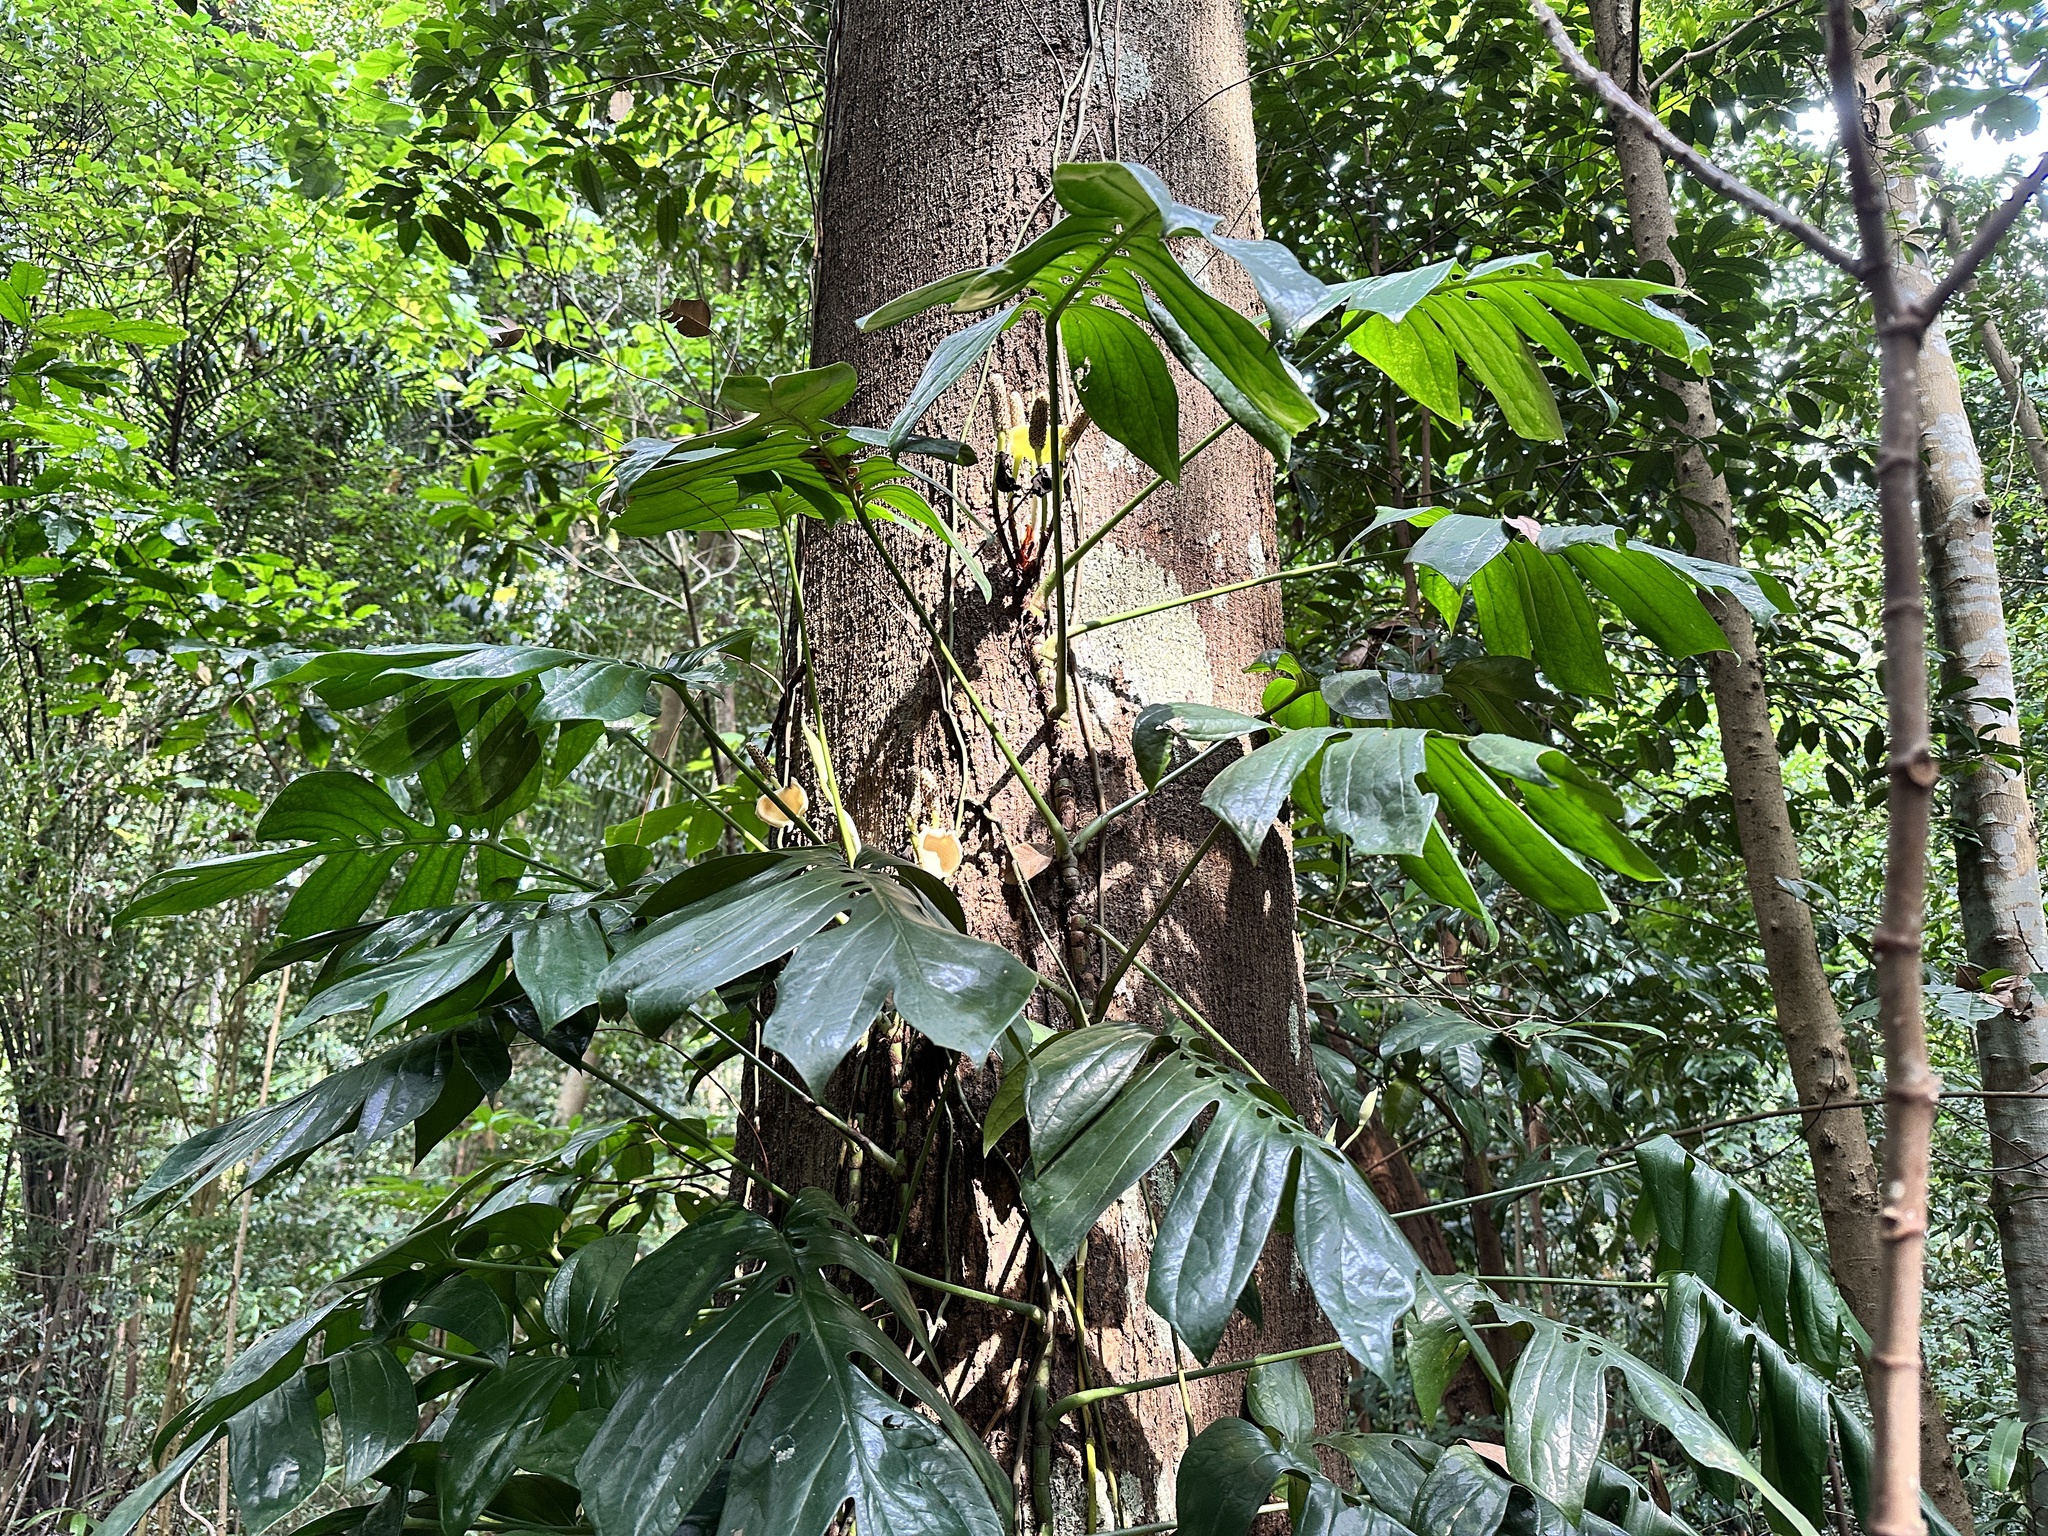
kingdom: Plantae
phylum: Tracheophyta
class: Liliopsida
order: Alismatales
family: Araceae
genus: Amydrium
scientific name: Amydrium medium
